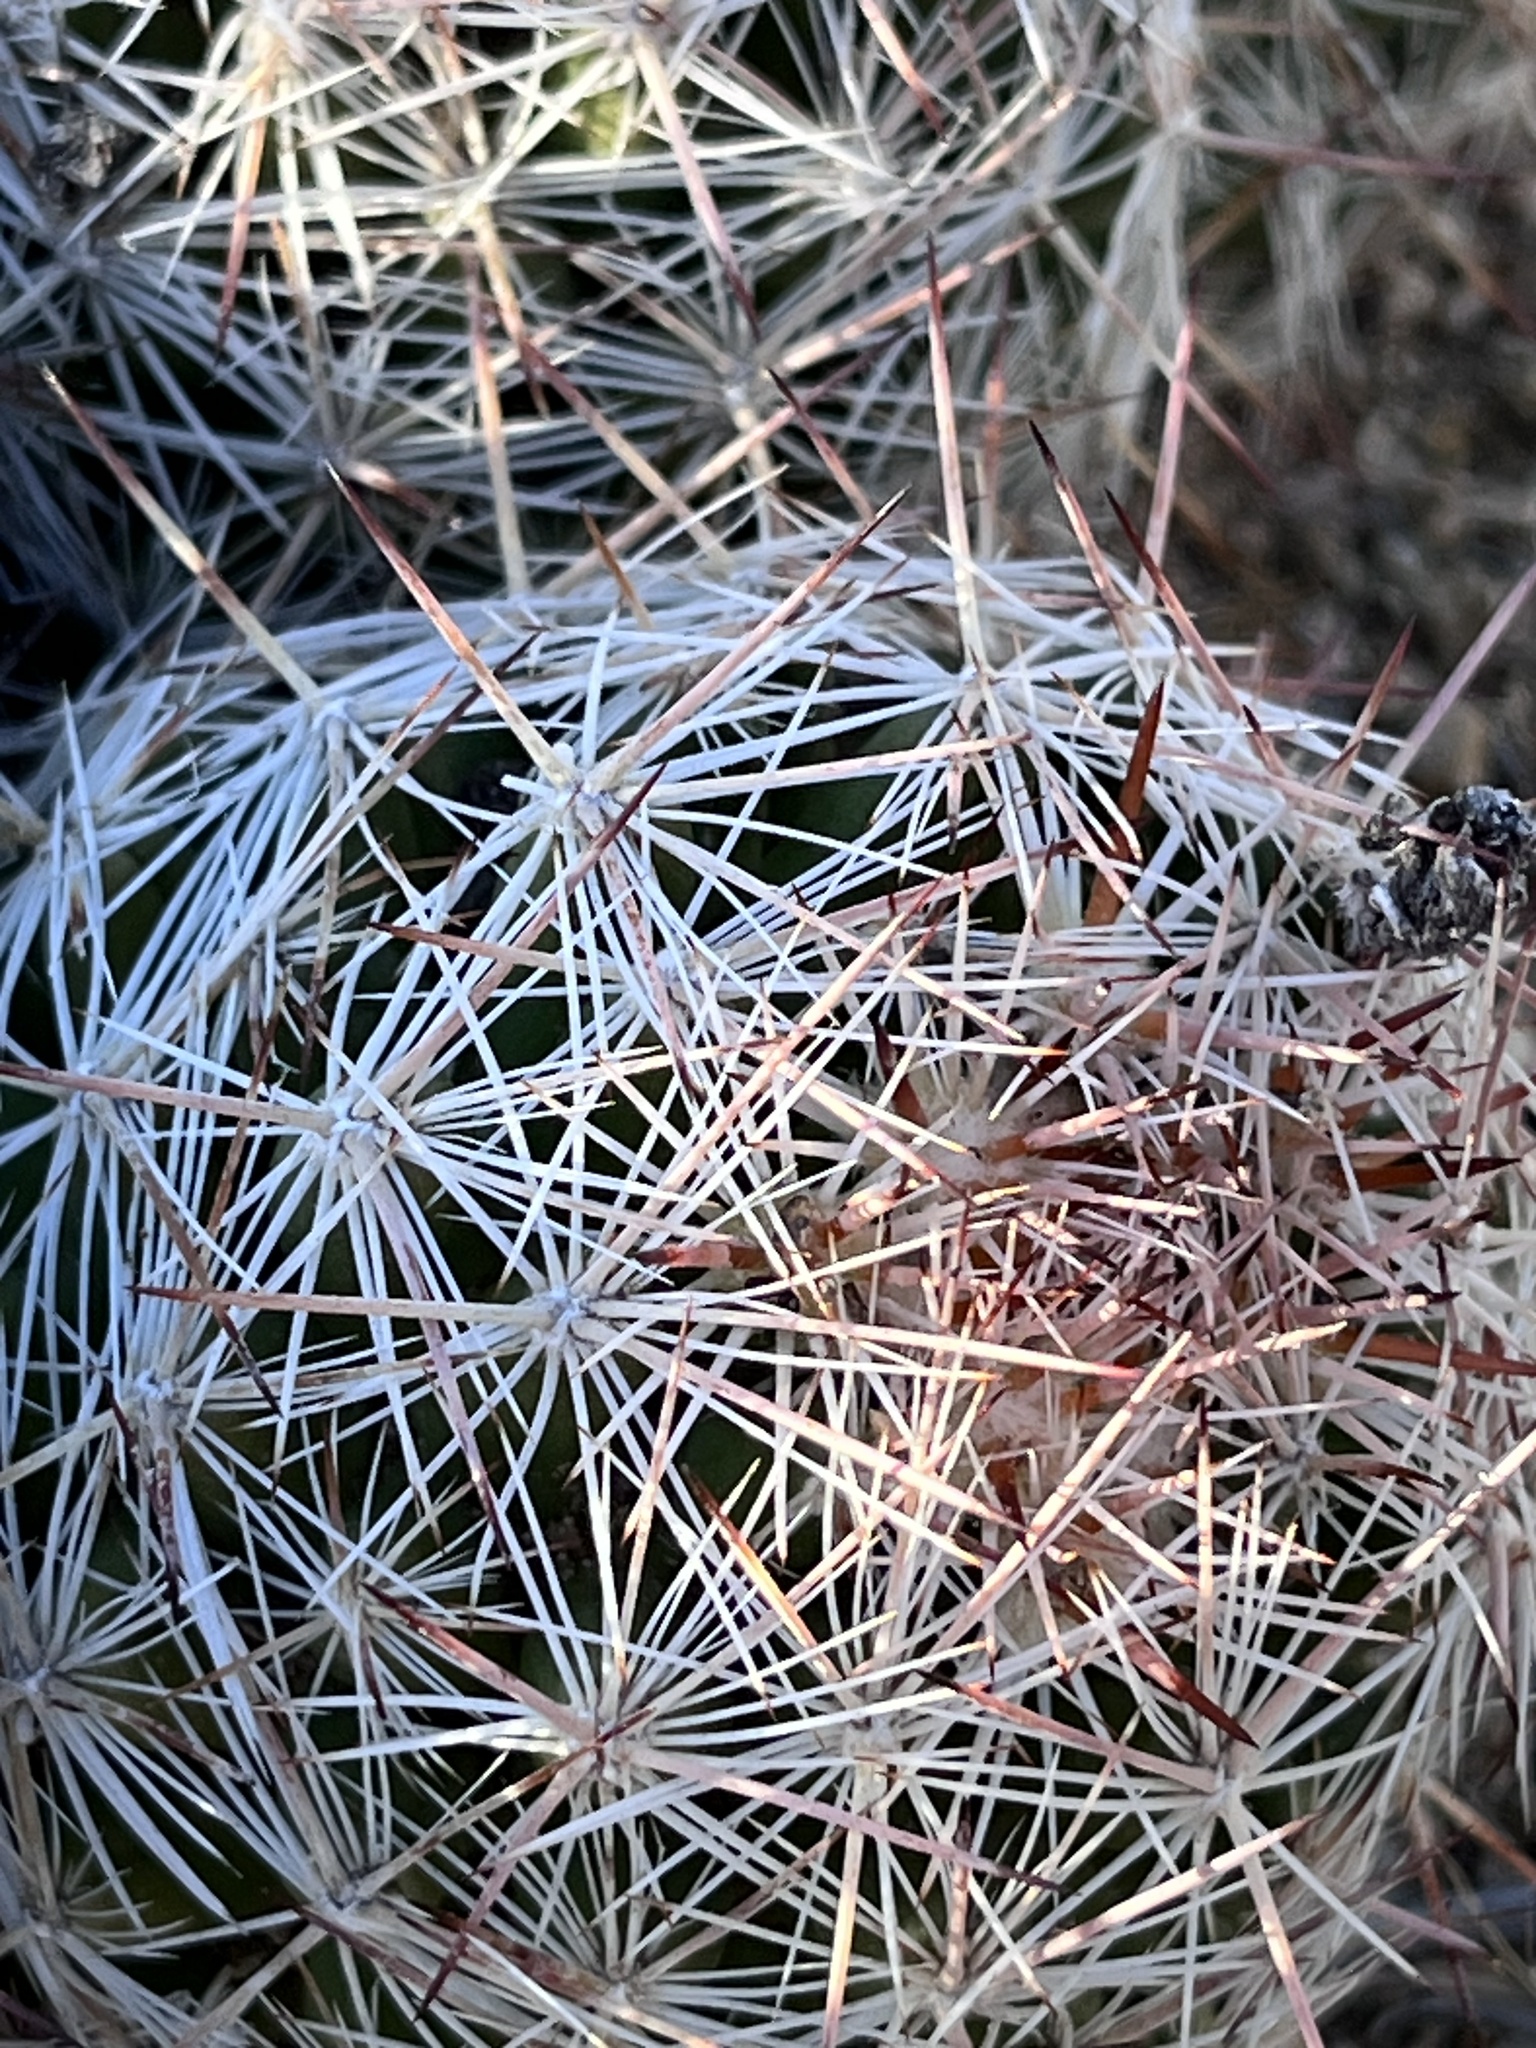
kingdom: Plantae
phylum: Tracheophyta
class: Magnoliopsida
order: Caryophyllales
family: Cactaceae
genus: Pelecyphora
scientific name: Pelecyphora vivipara
